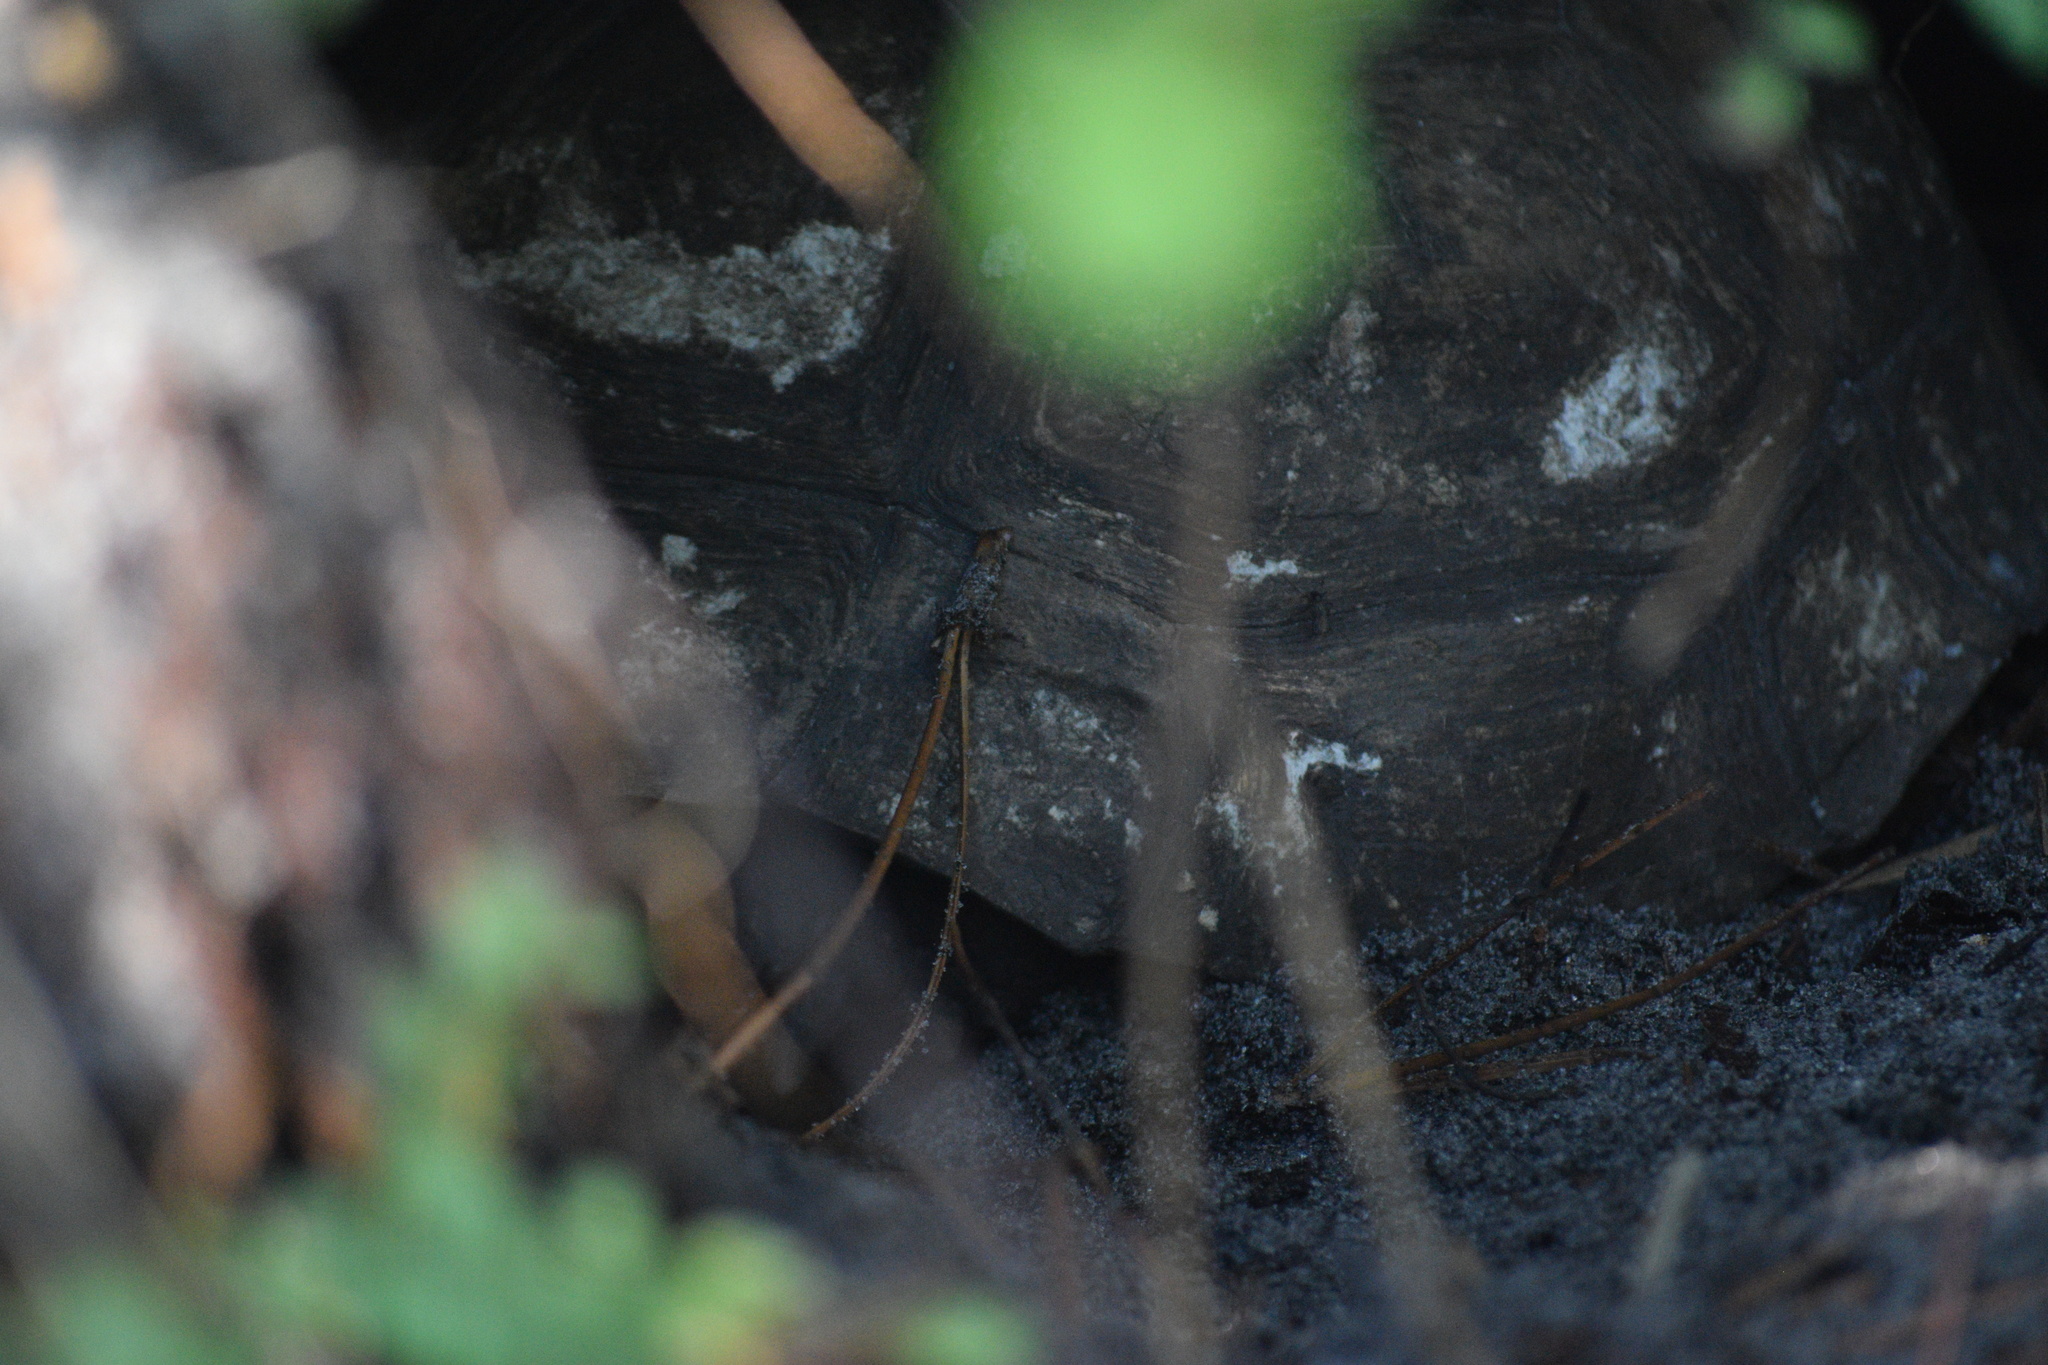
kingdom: Animalia
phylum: Chordata
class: Testudines
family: Testudinidae
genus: Gopherus
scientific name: Gopherus polyphemus
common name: Florida gopher tortoise
